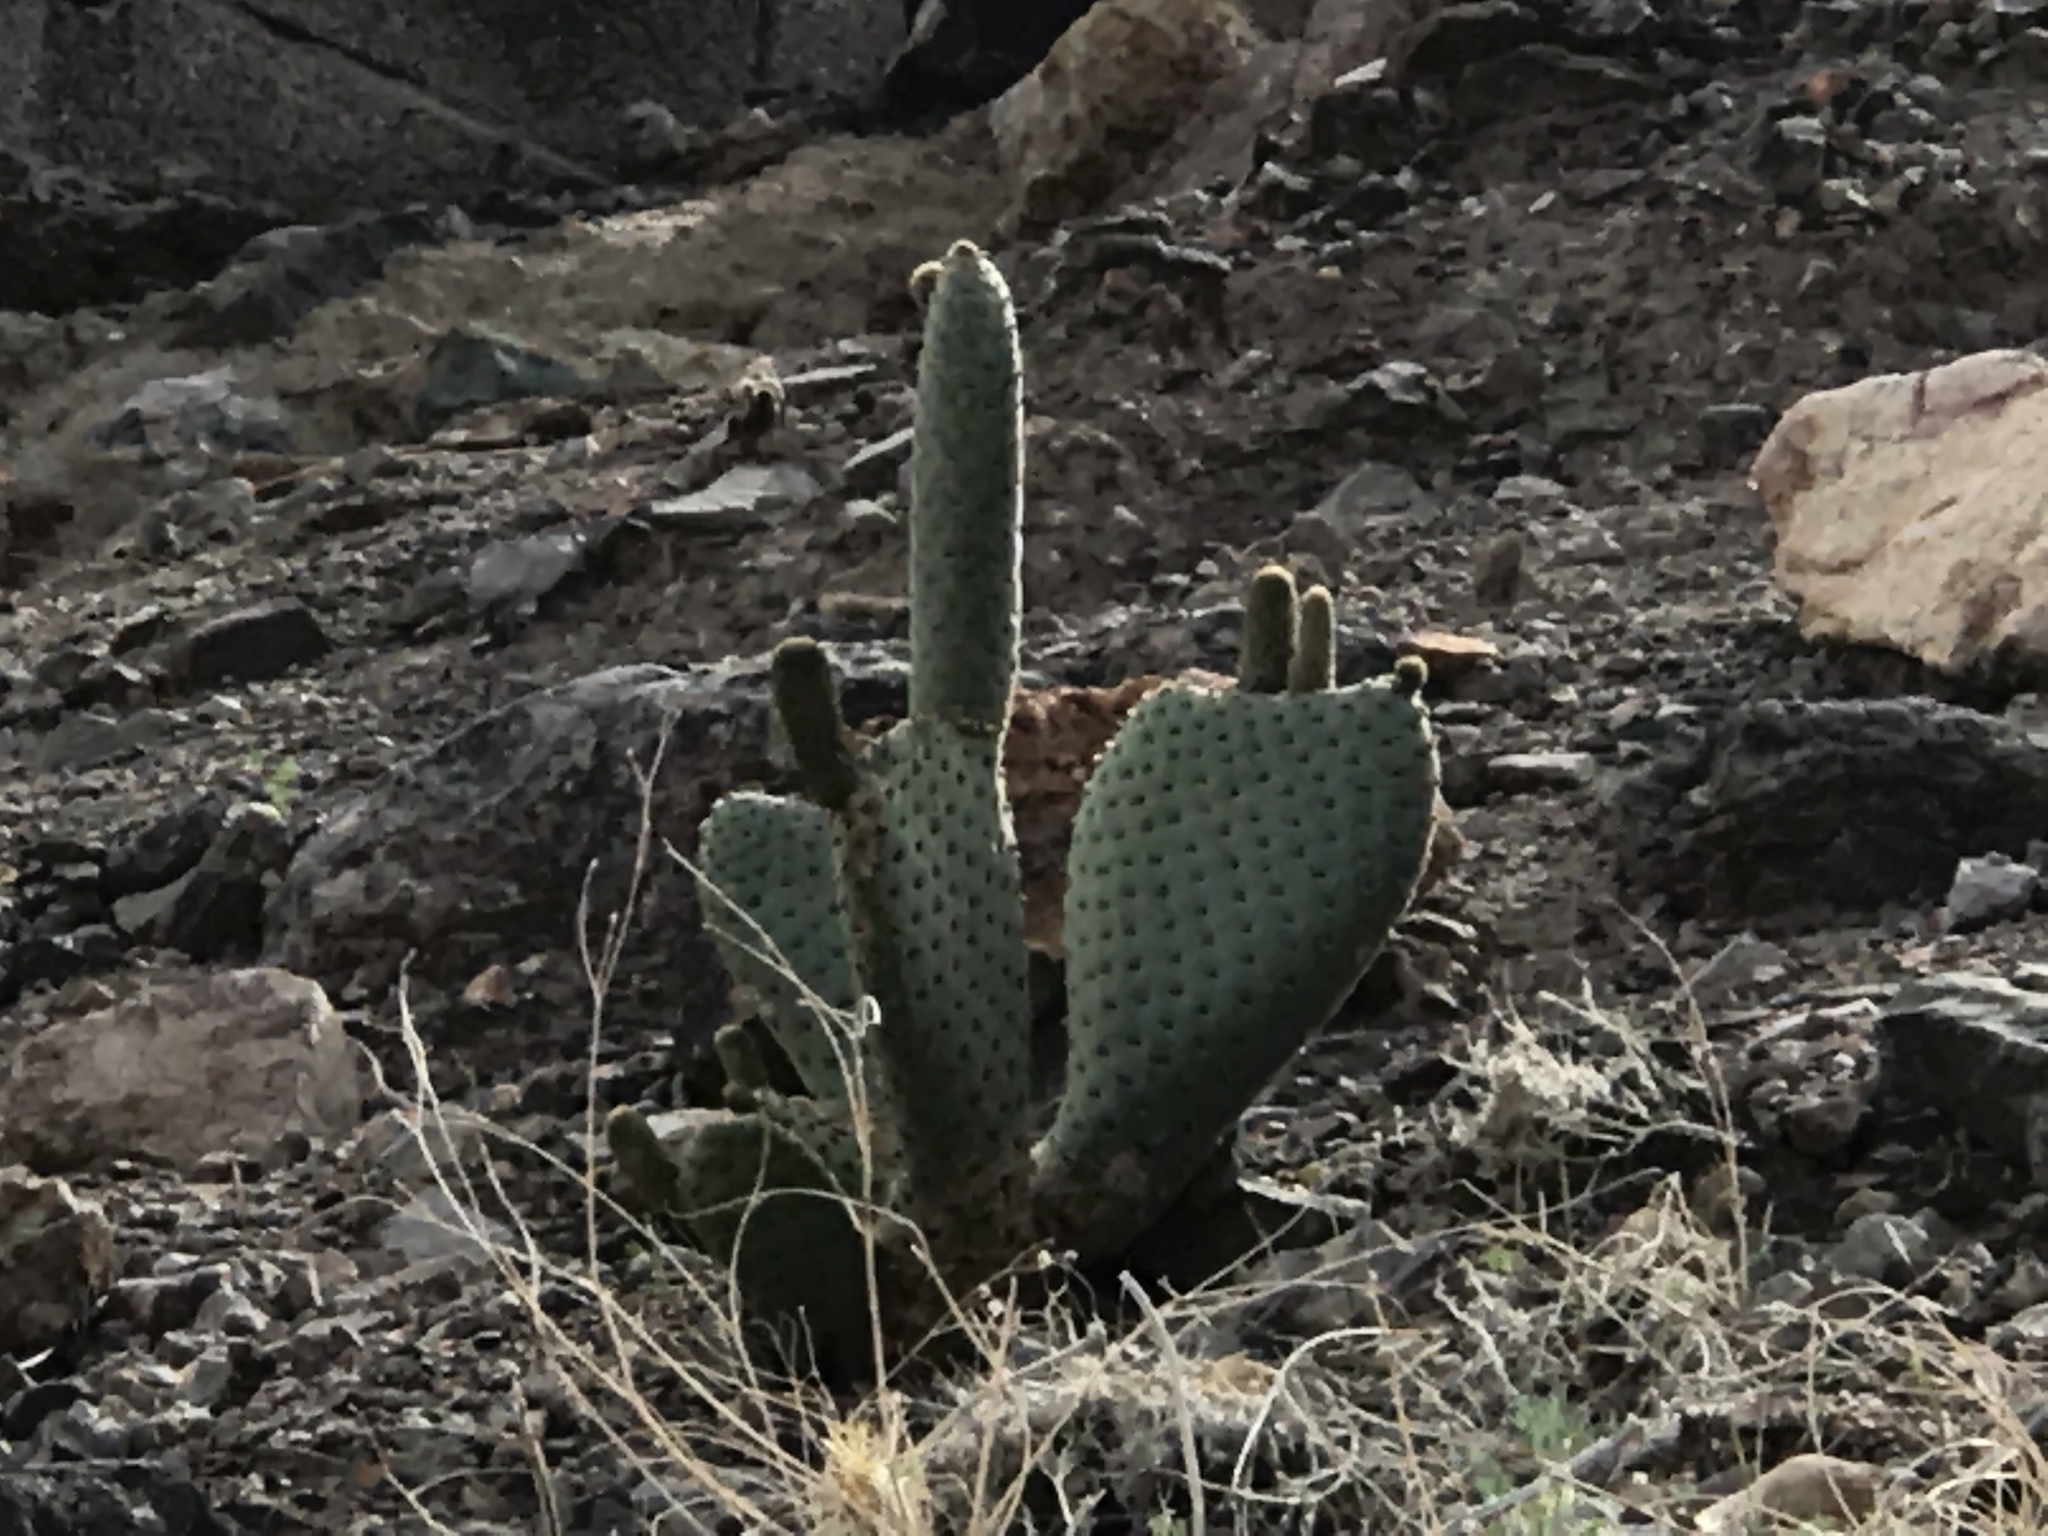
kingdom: Plantae
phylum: Tracheophyta
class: Magnoliopsida
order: Caryophyllales
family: Cactaceae
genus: Opuntia
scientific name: Opuntia basilaris
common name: Beavertail prickly-pear
